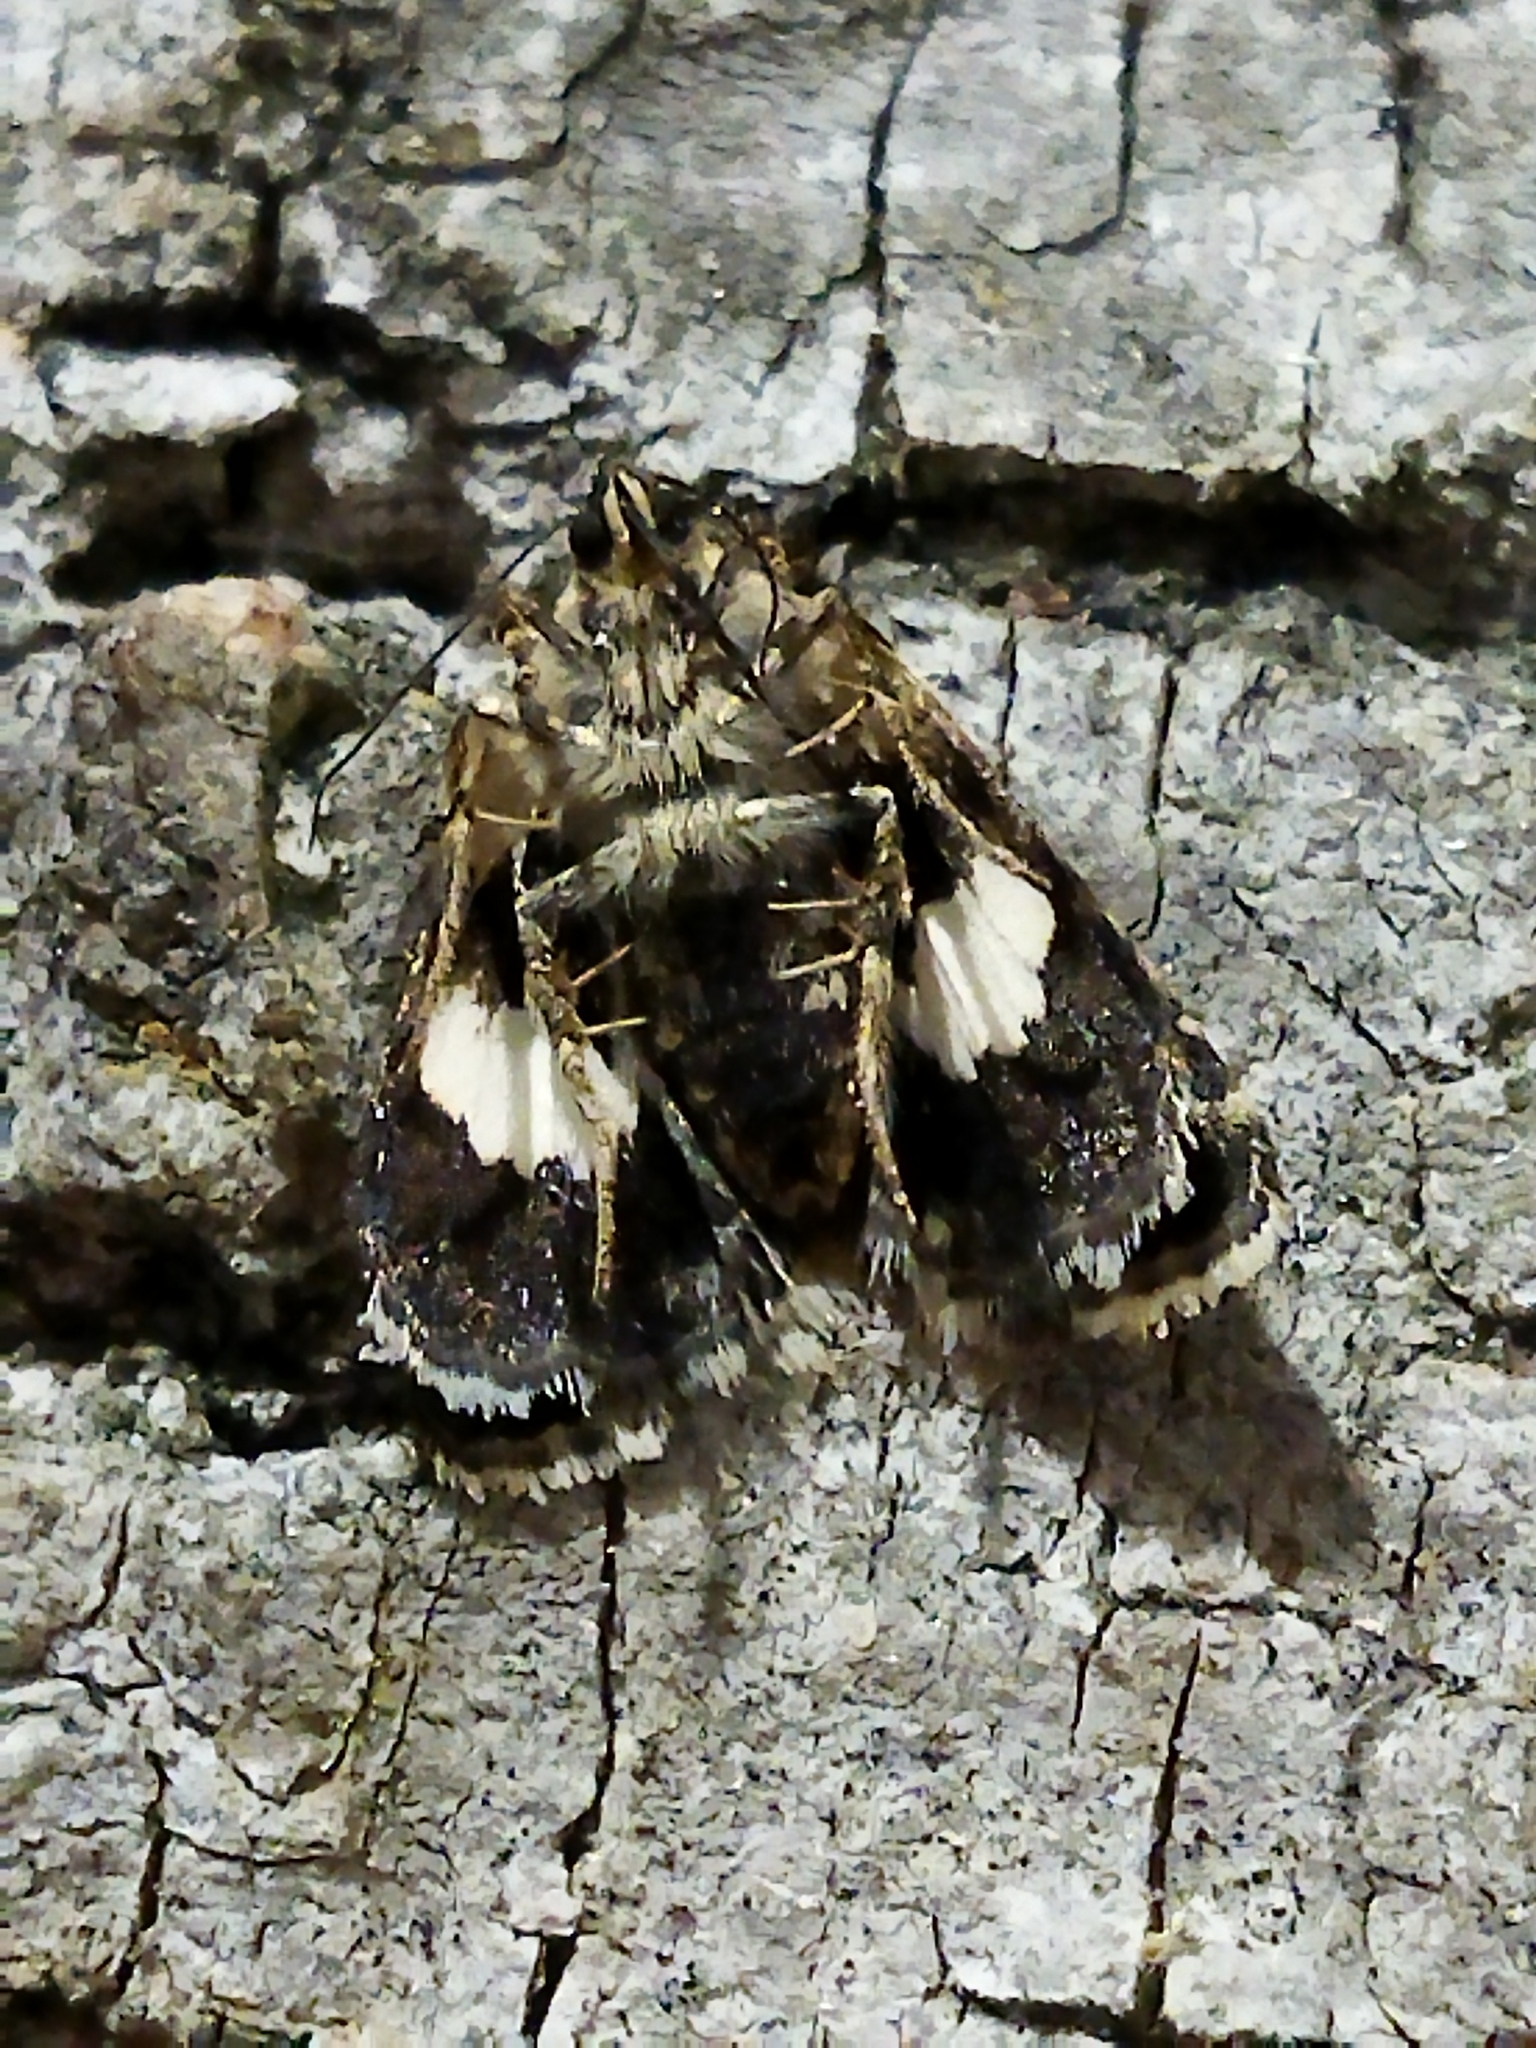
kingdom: Animalia
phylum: Arthropoda
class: Insecta
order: Lepidoptera
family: Erebidae
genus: Tyta
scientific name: Tyta luctuosa
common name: Four-spotted
